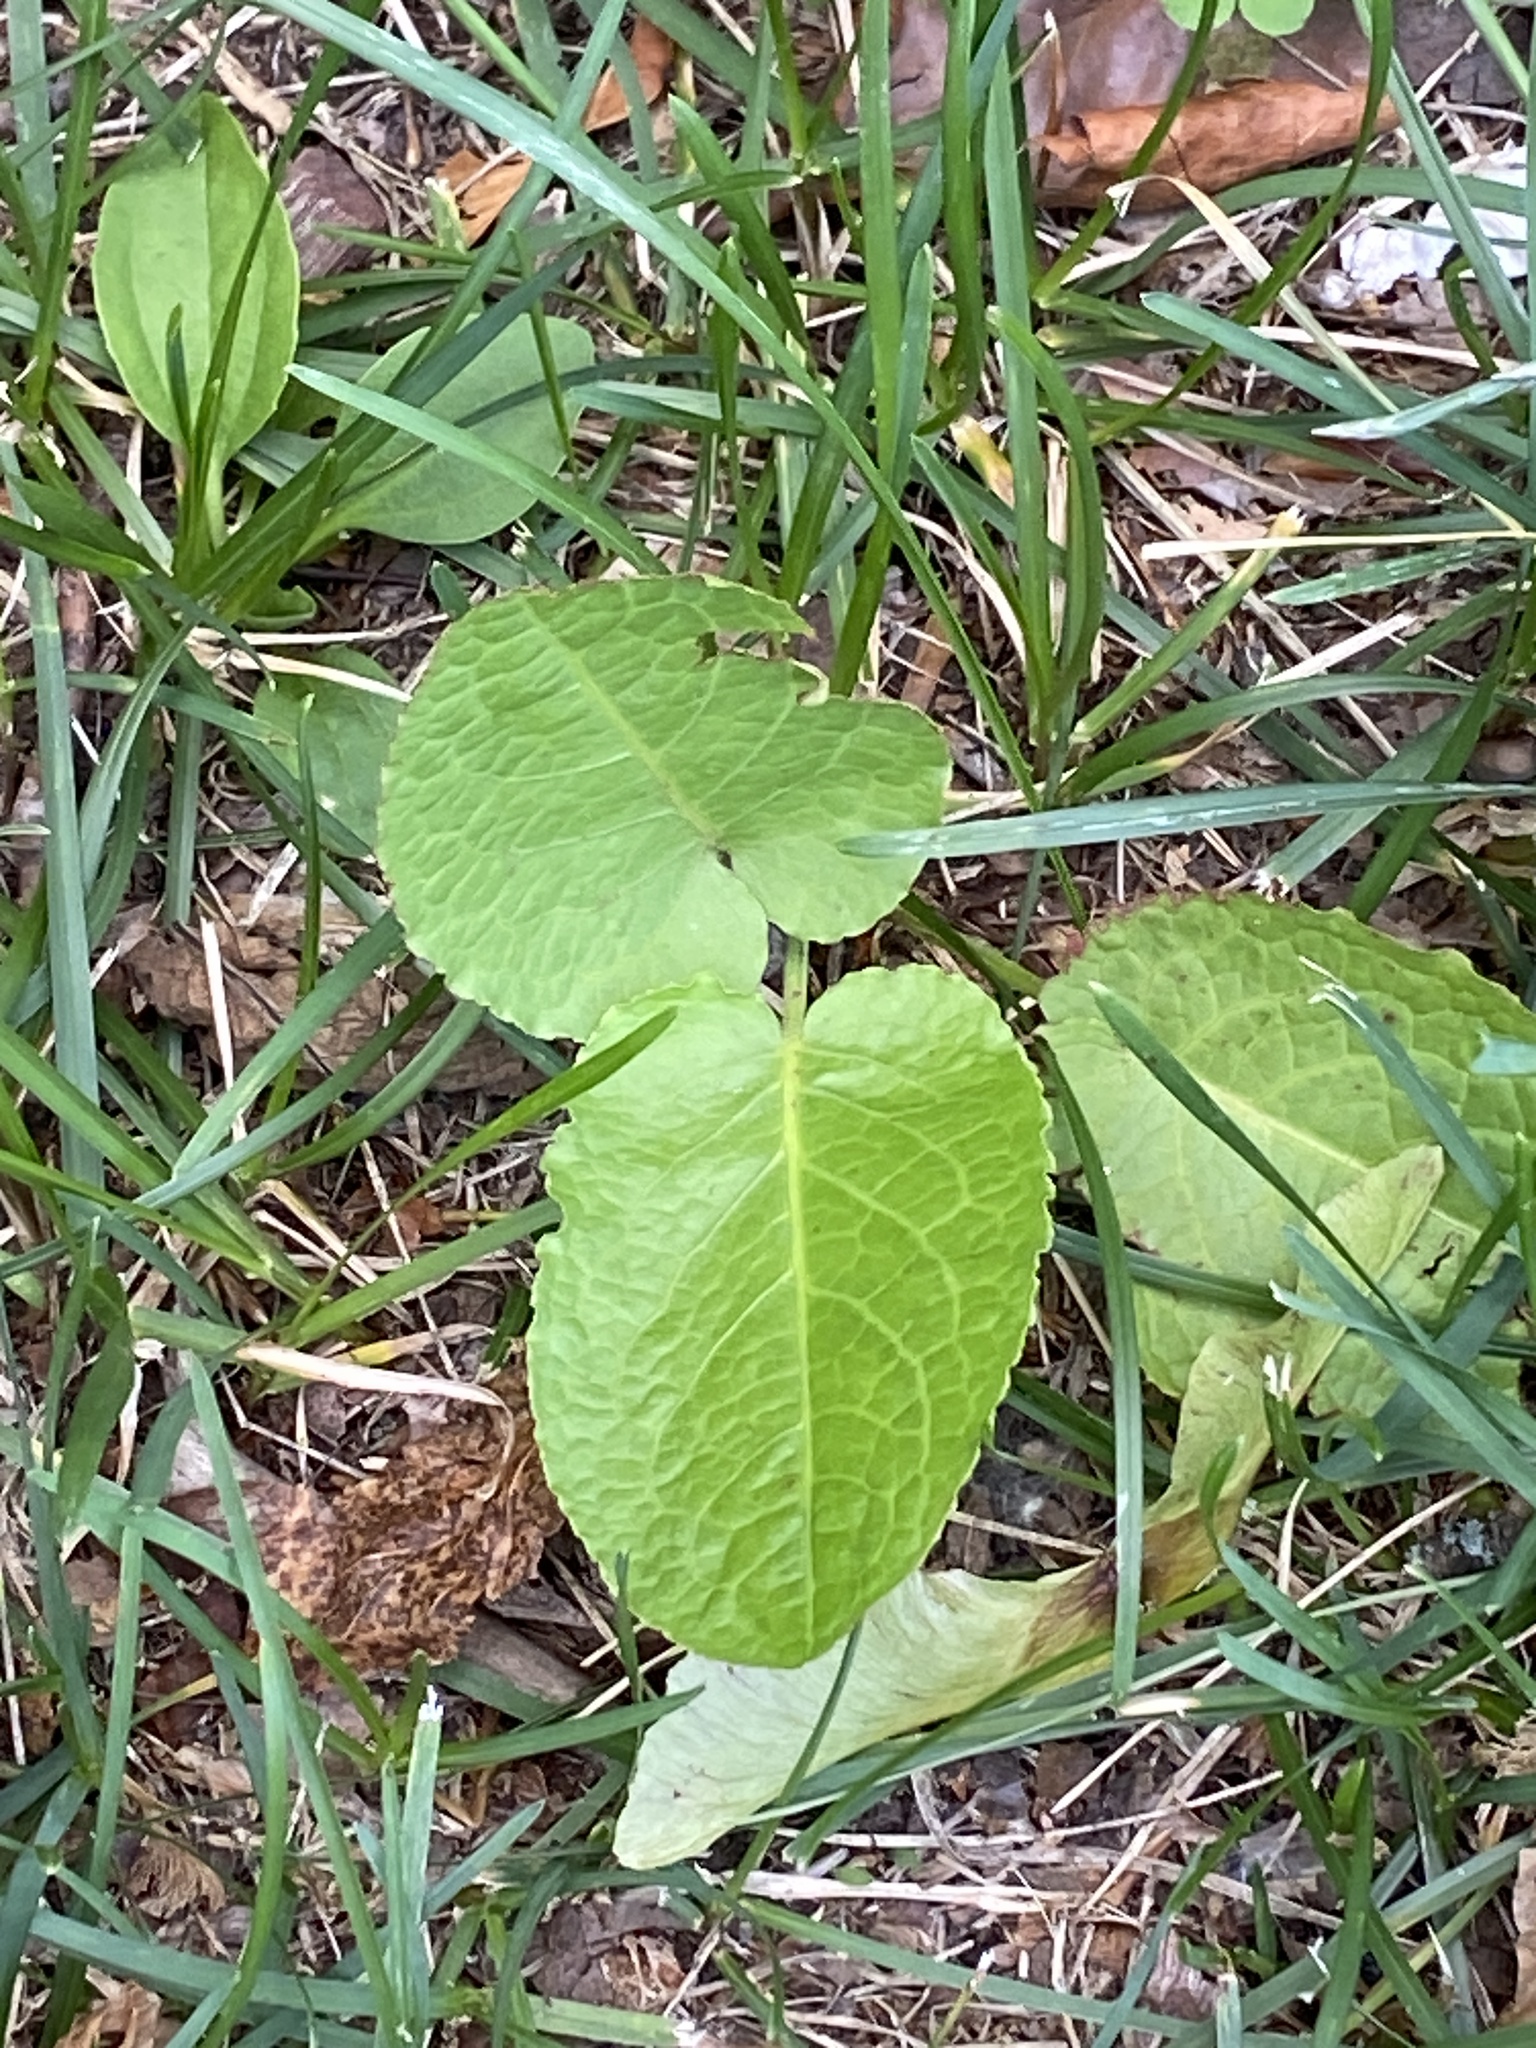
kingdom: Plantae
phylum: Tracheophyta
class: Magnoliopsida
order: Caryophyllales
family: Polygonaceae
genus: Rumex
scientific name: Rumex obtusifolius
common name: Bitter dock
